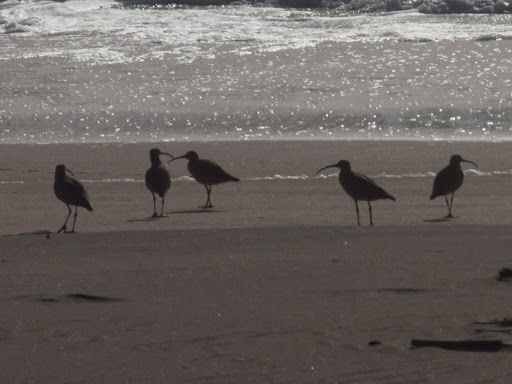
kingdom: Animalia
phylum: Chordata
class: Aves
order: Charadriiformes
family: Scolopacidae
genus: Numenius
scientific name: Numenius phaeopus
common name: Whimbrel
